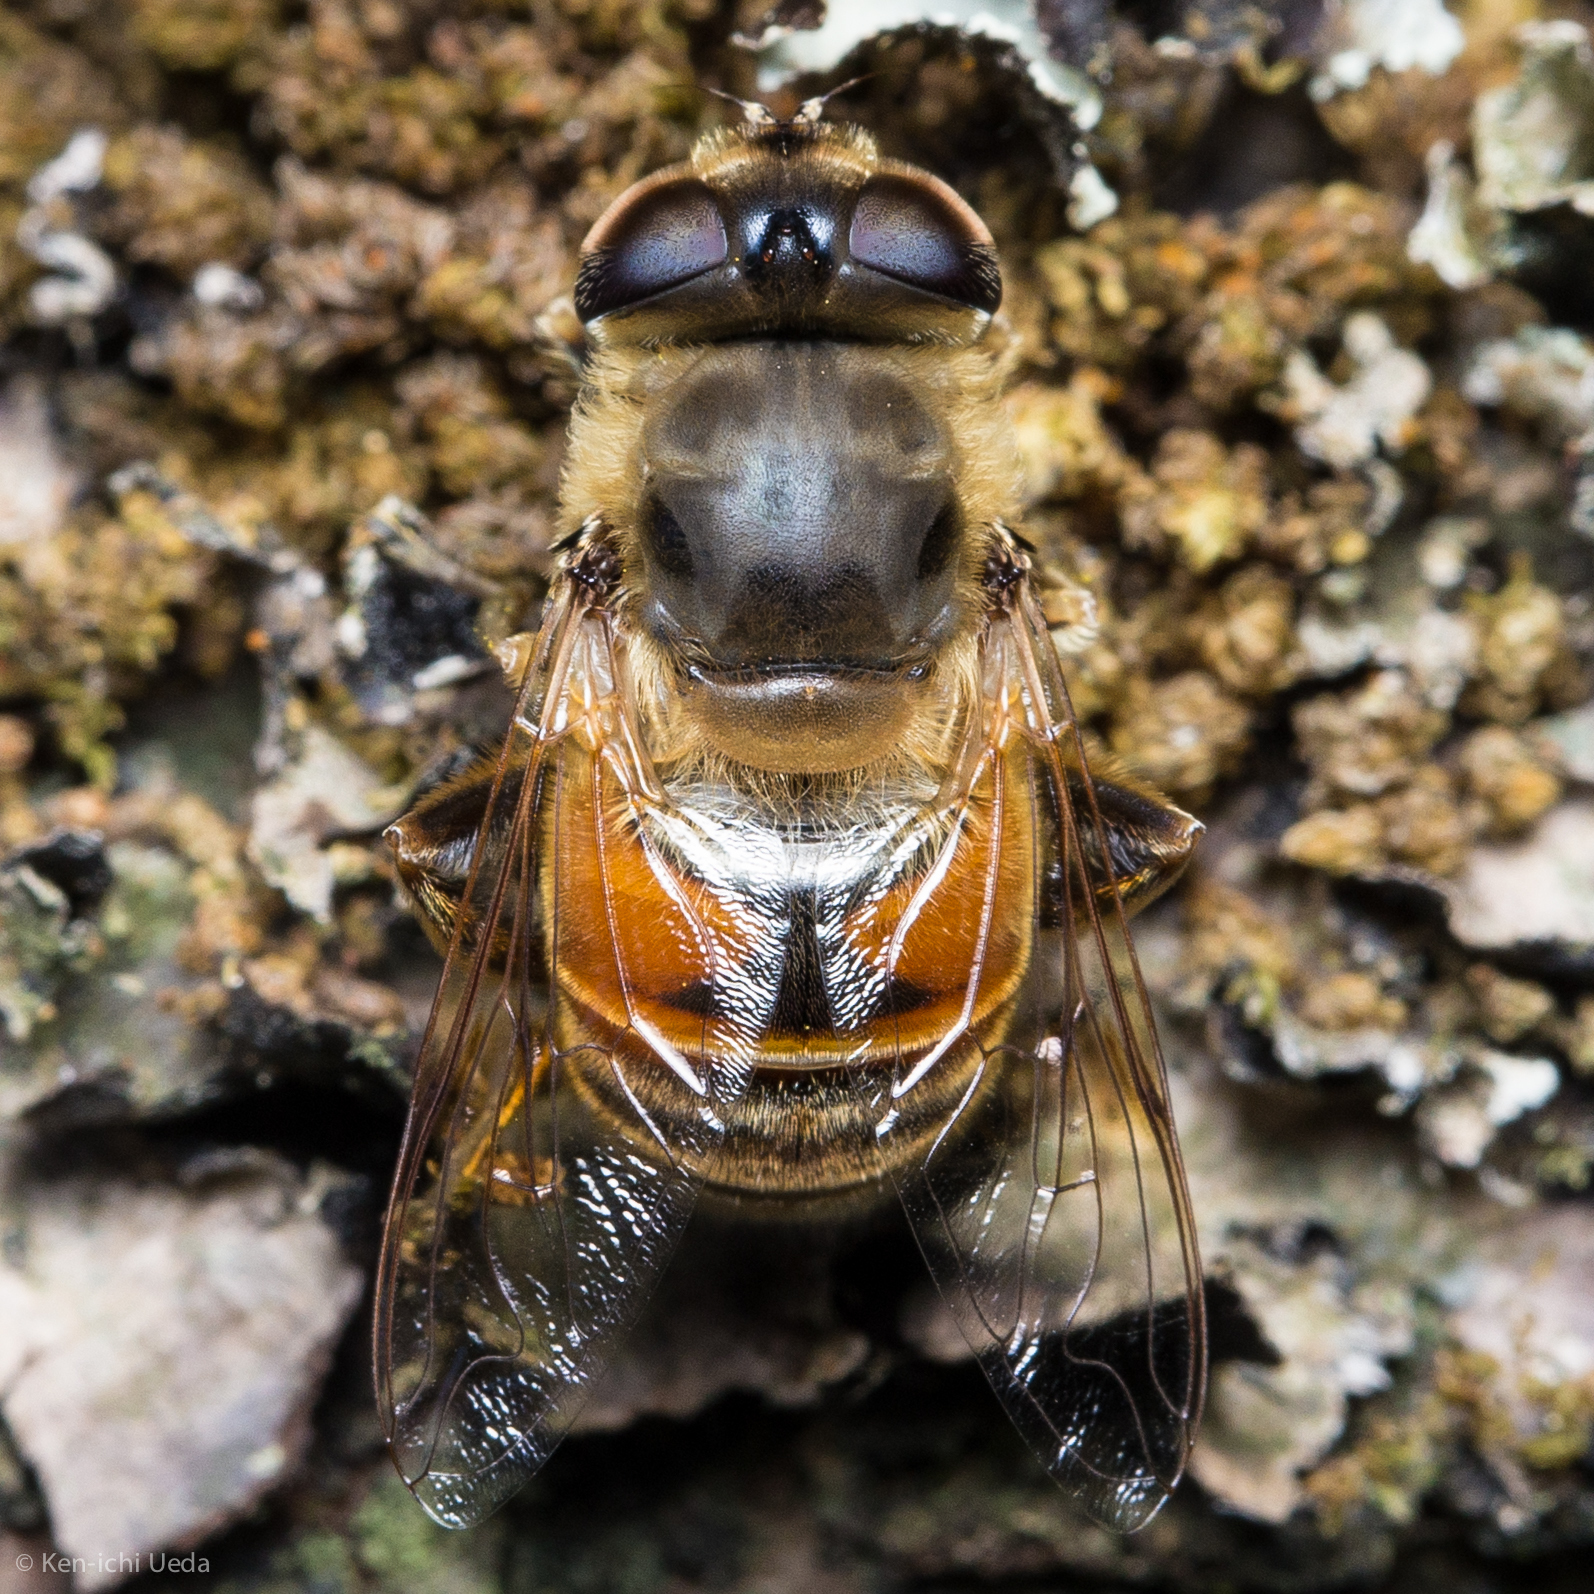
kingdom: Animalia
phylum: Arthropoda
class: Insecta
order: Diptera
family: Syrphidae
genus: Eristalis
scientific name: Eristalis tenax
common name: Drone fly
